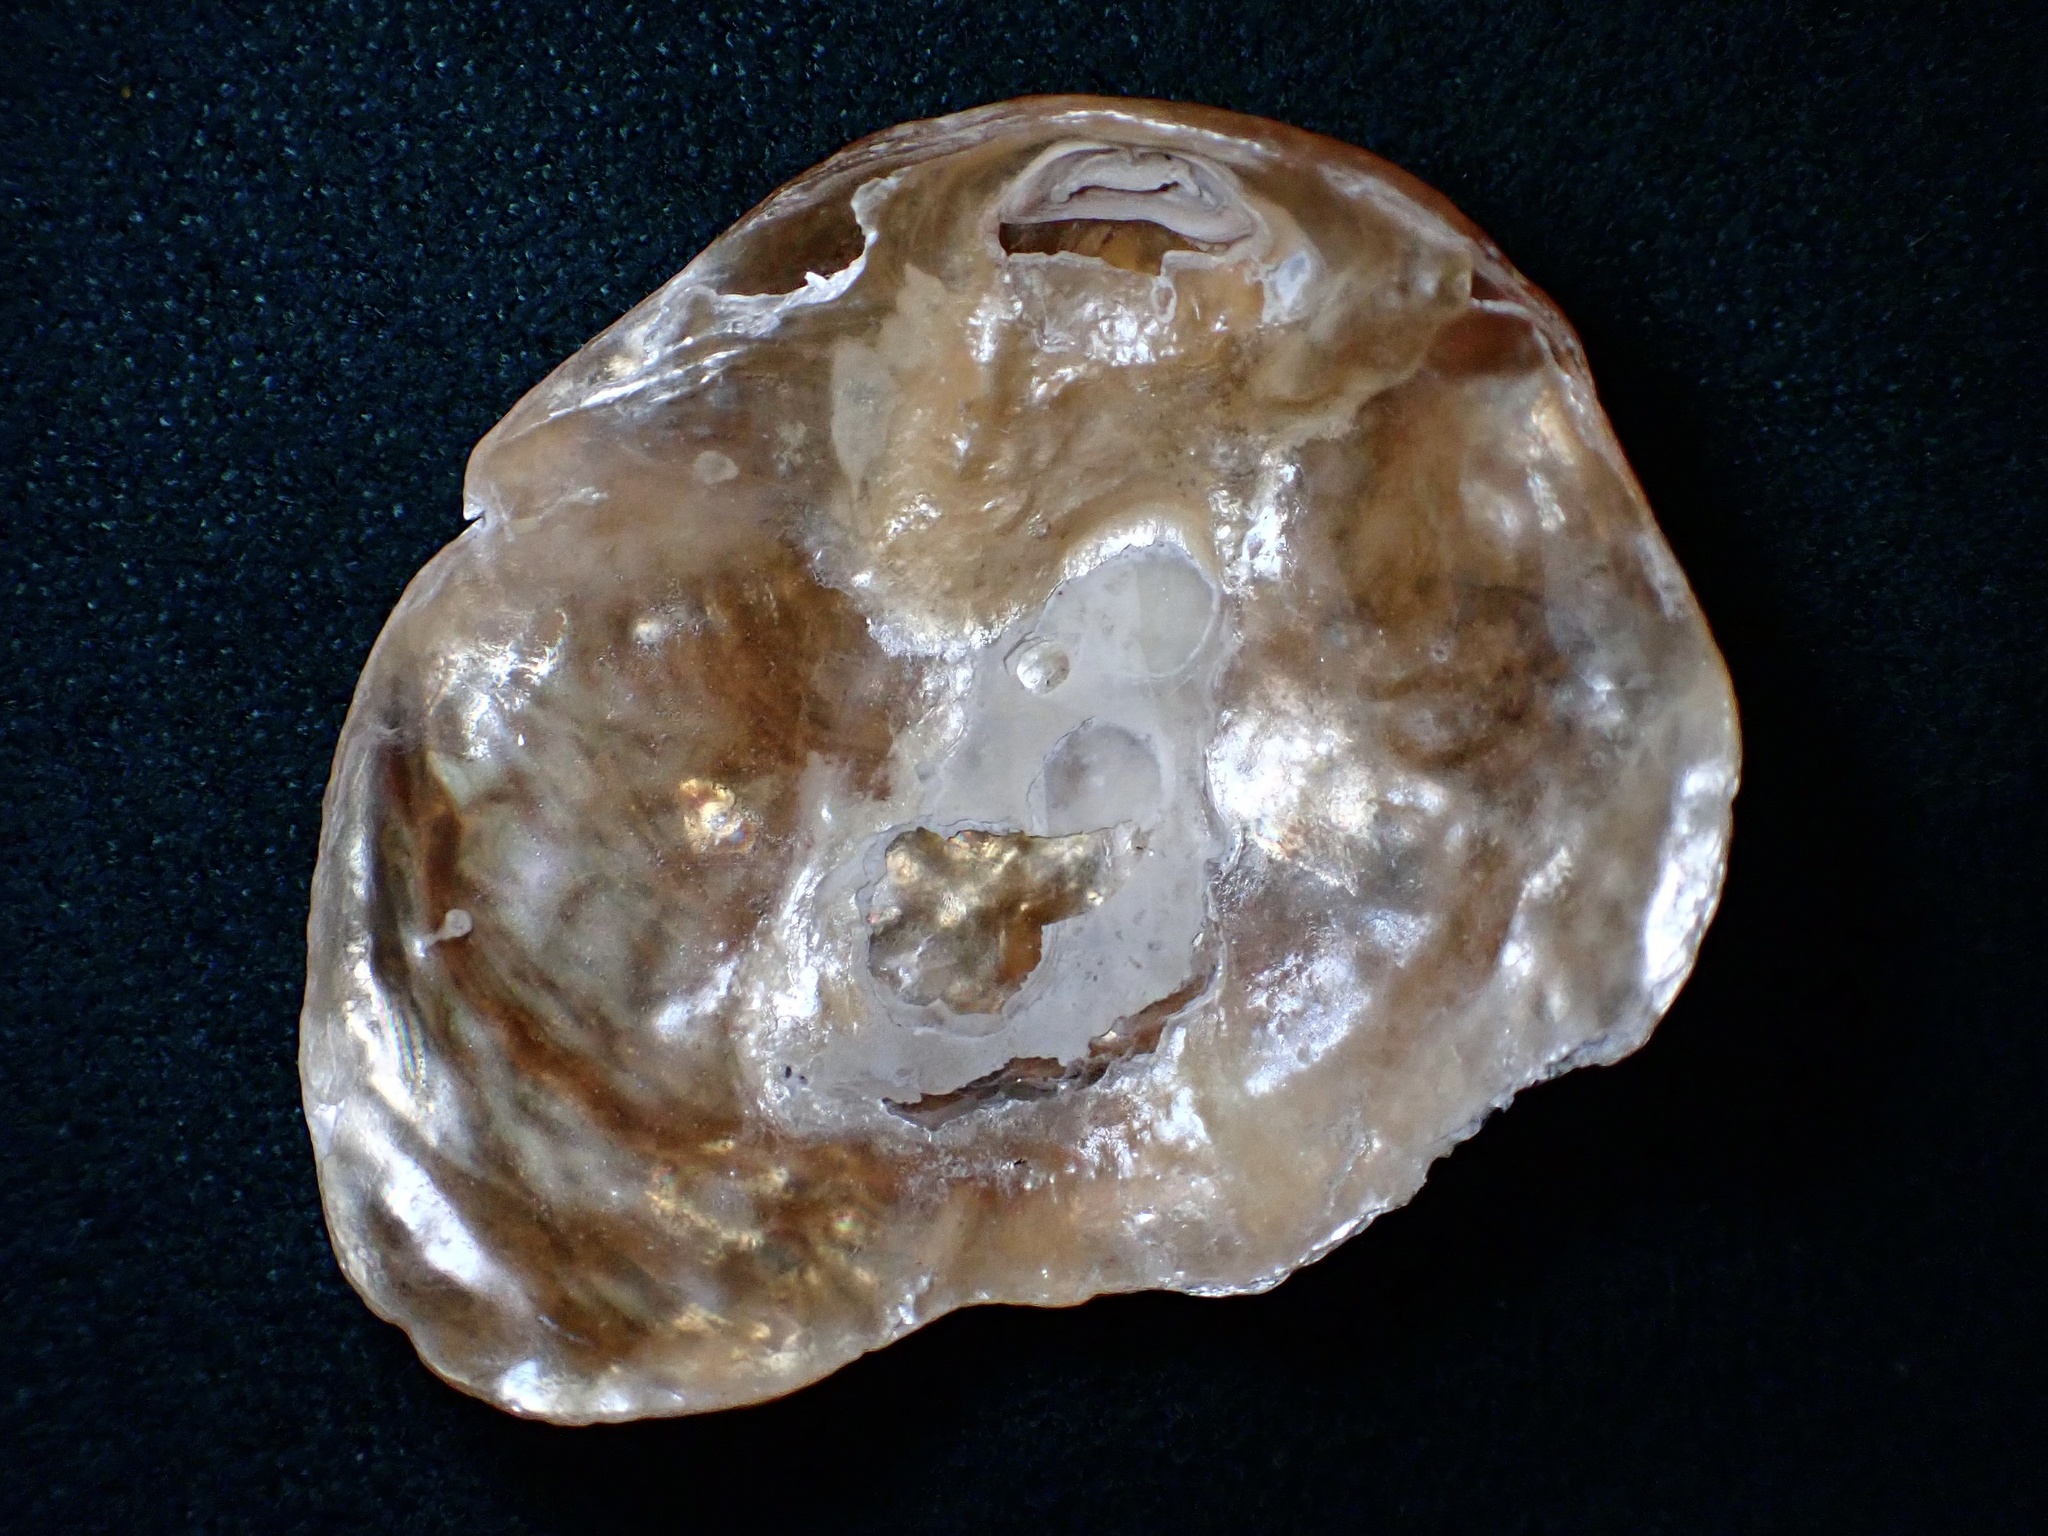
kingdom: Animalia
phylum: Mollusca
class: Bivalvia
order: Pectinida
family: Anomiidae
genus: Anomia
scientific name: Anomia peruviana
